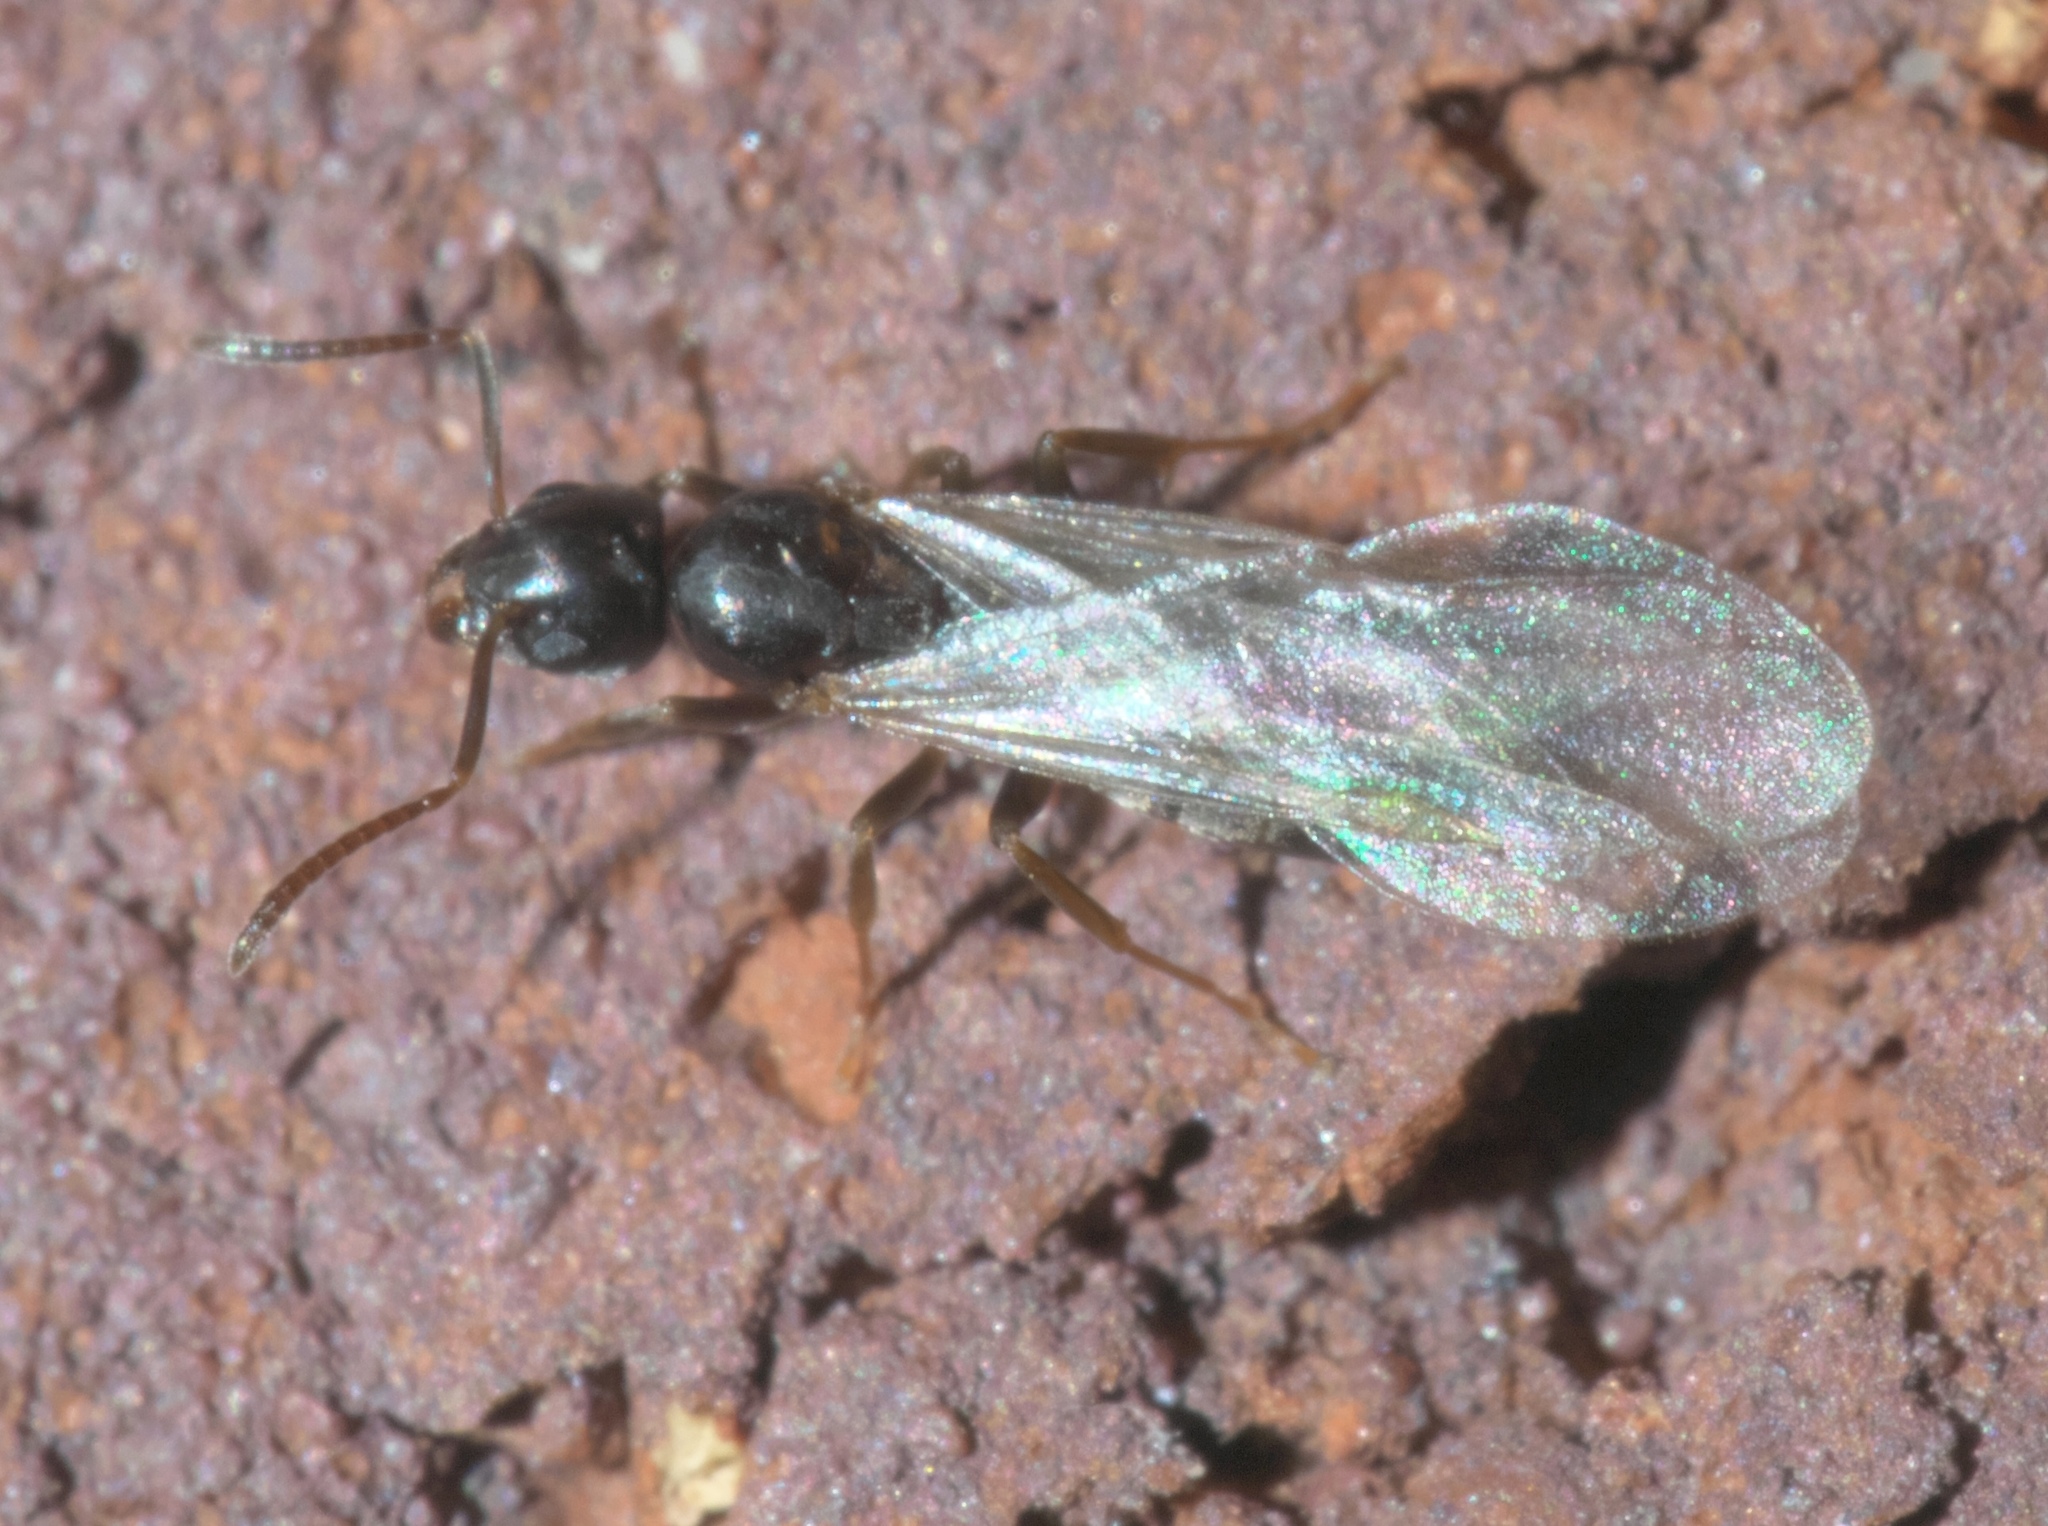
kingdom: Animalia
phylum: Arthropoda
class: Insecta
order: Hymenoptera
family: Formicidae
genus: Tapinoma
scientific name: Tapinoma sessile
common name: Odorous house ant
